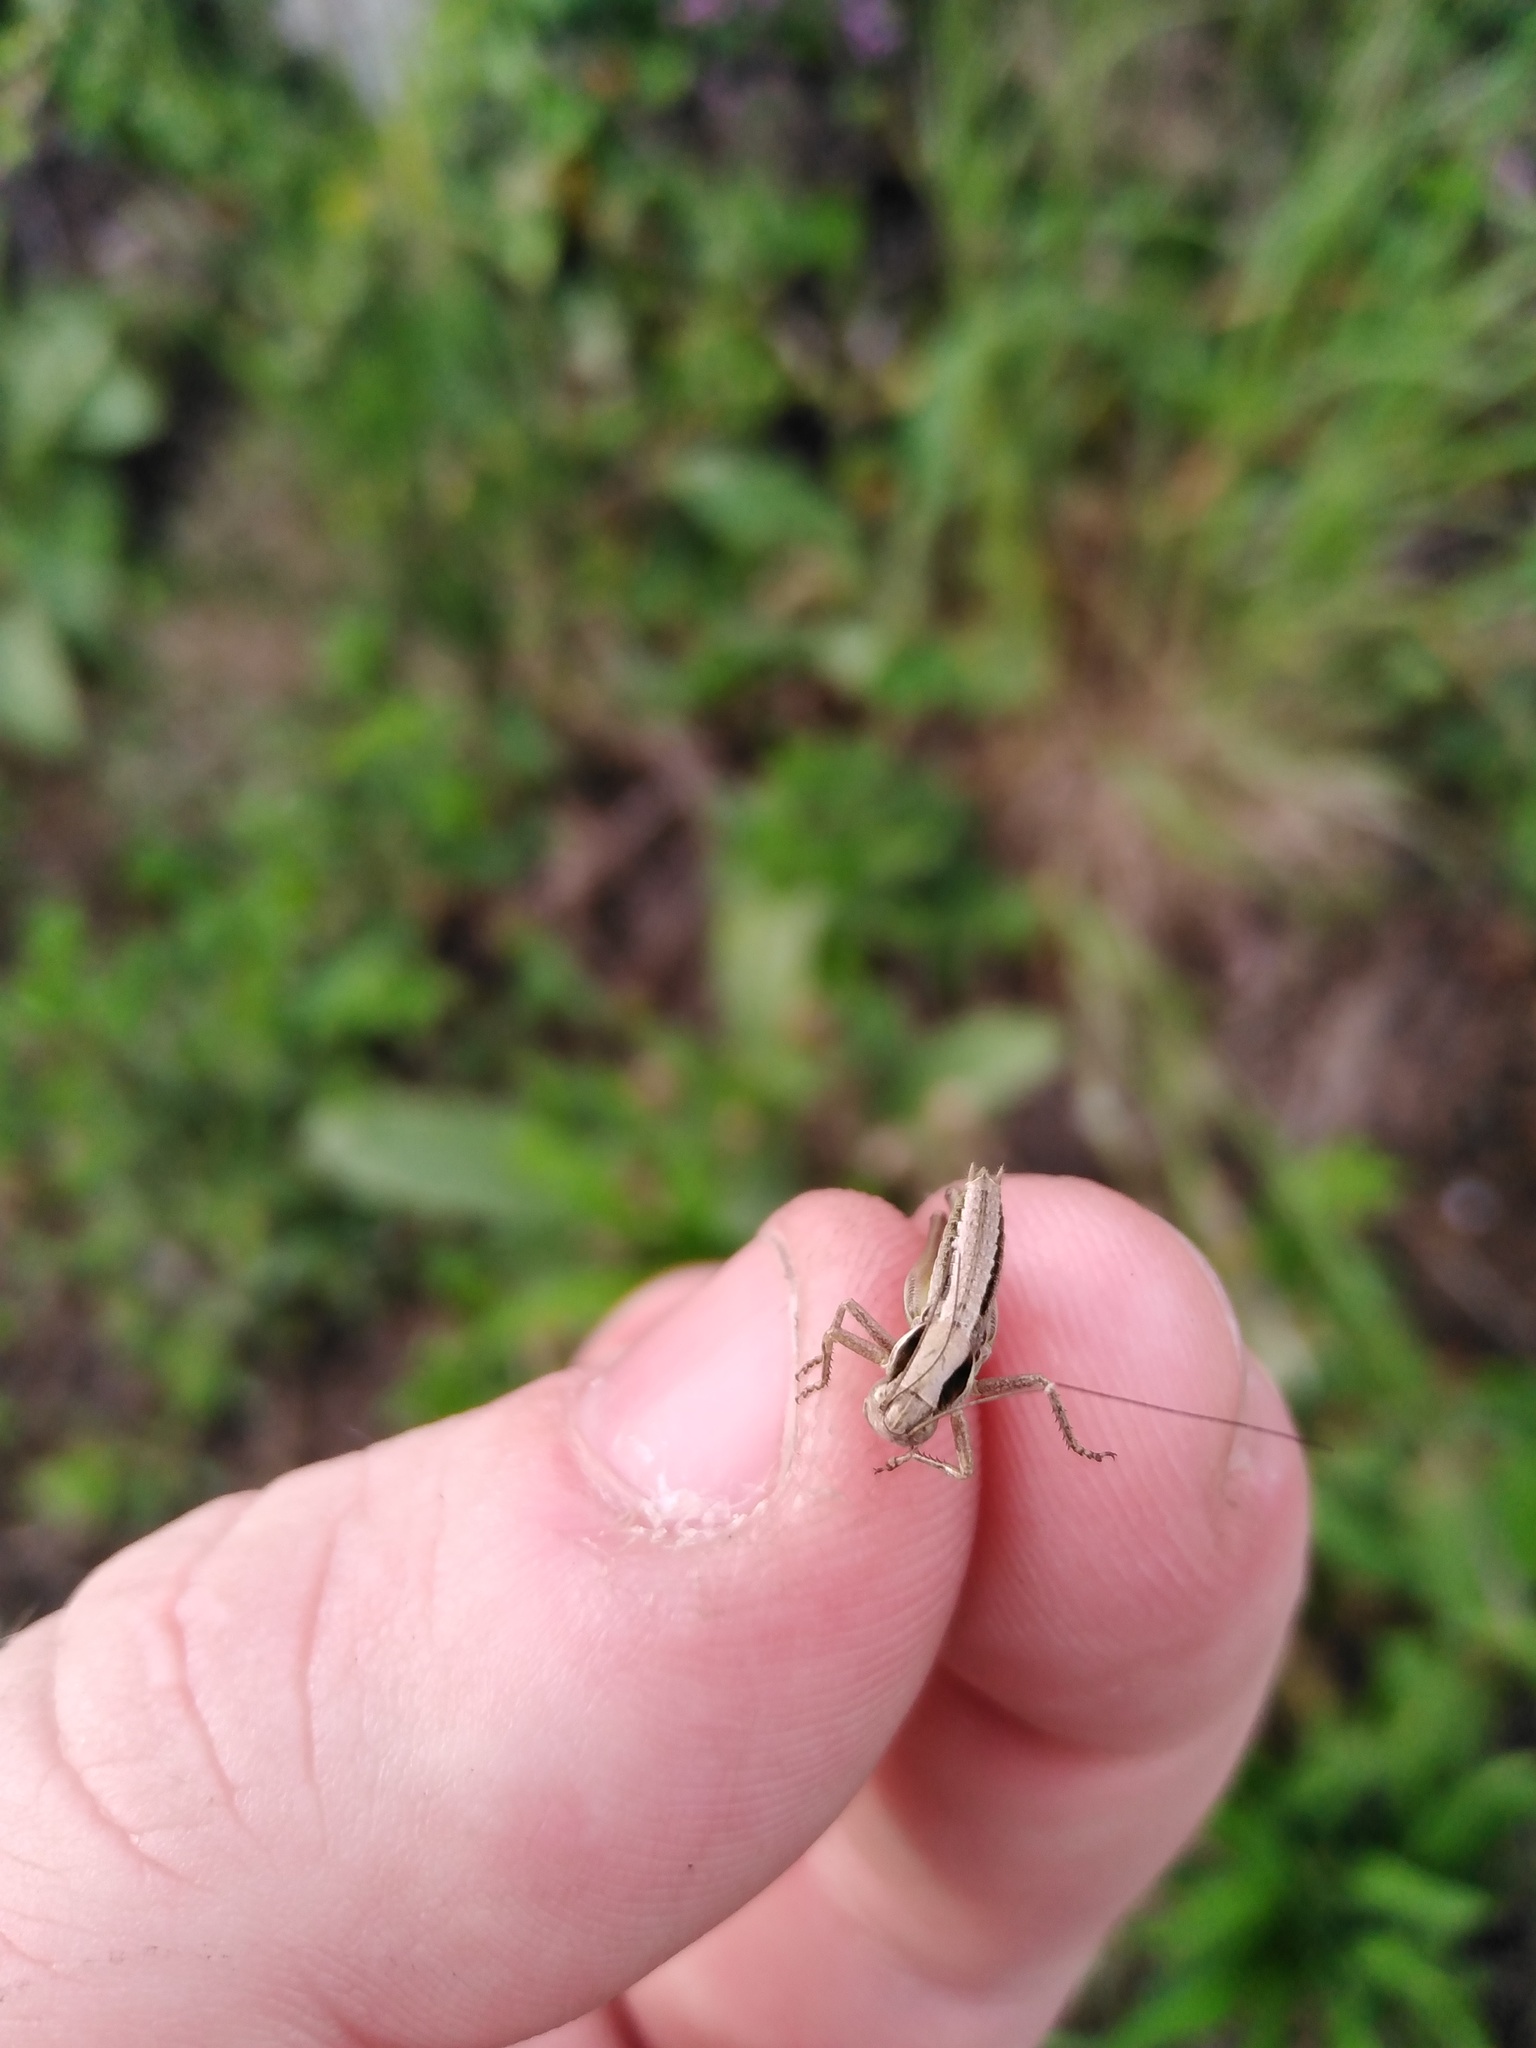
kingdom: Animalia
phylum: Arthropoda
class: Insecta
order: Orthoptera
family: Tettigoniidae
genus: Platycleis
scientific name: Platycleis grisea
